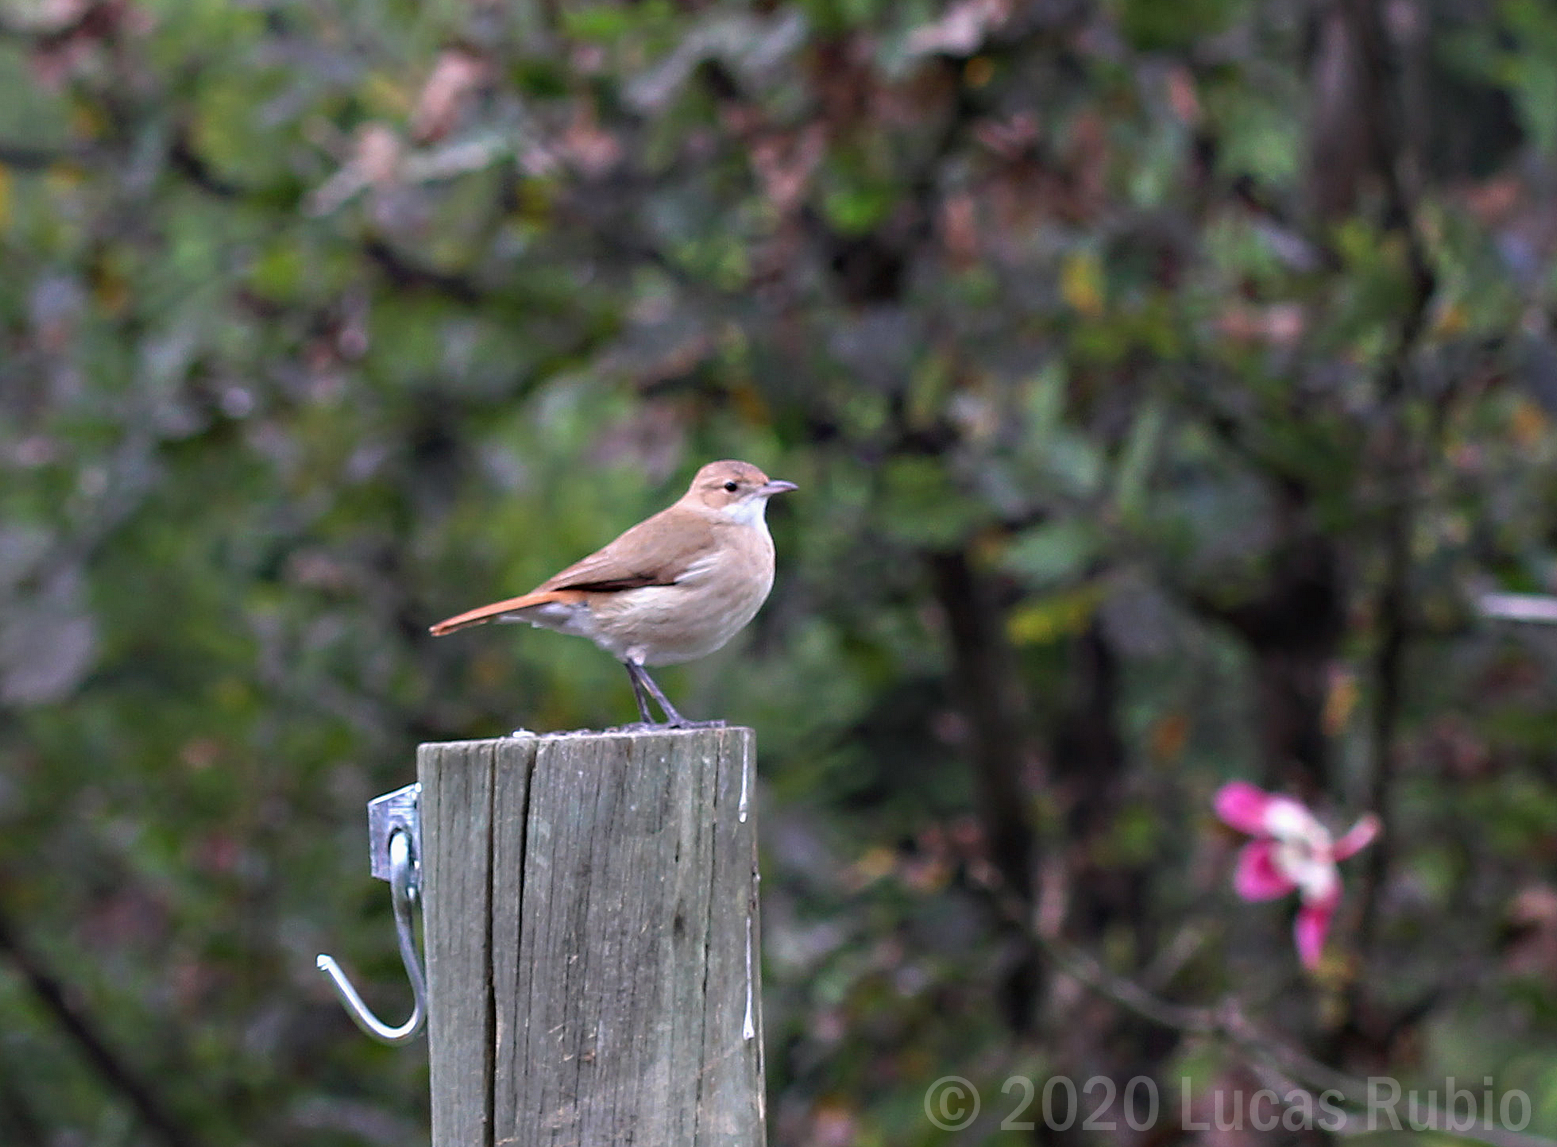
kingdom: Animalia
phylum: Chordata
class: Aves
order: Passeriformes
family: Furnariidae
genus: Furnarius
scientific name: Furnarius rufus
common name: Rufous hornero
